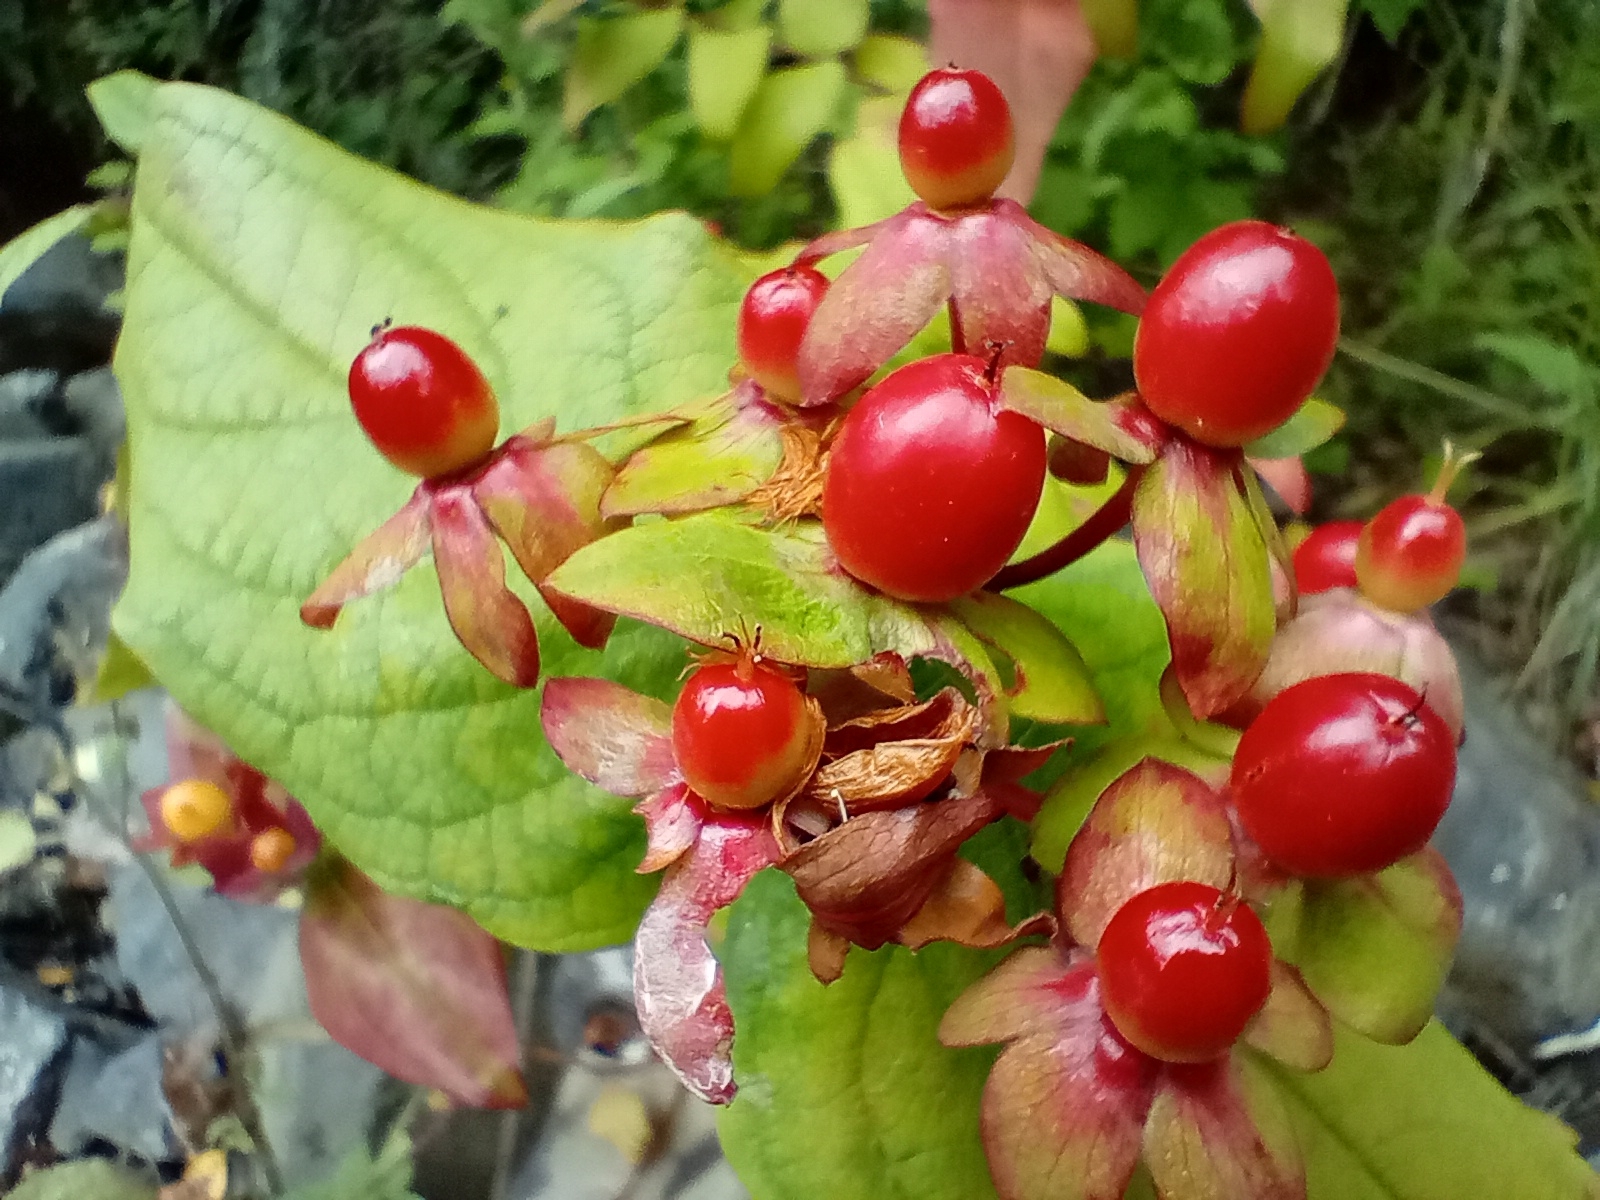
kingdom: Plantae
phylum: Tracheophyta
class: Magnoliopsida
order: Malpighiales
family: Hypericaceae
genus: Hypericum
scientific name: Hypericum androsaemum
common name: Sweet-amber
